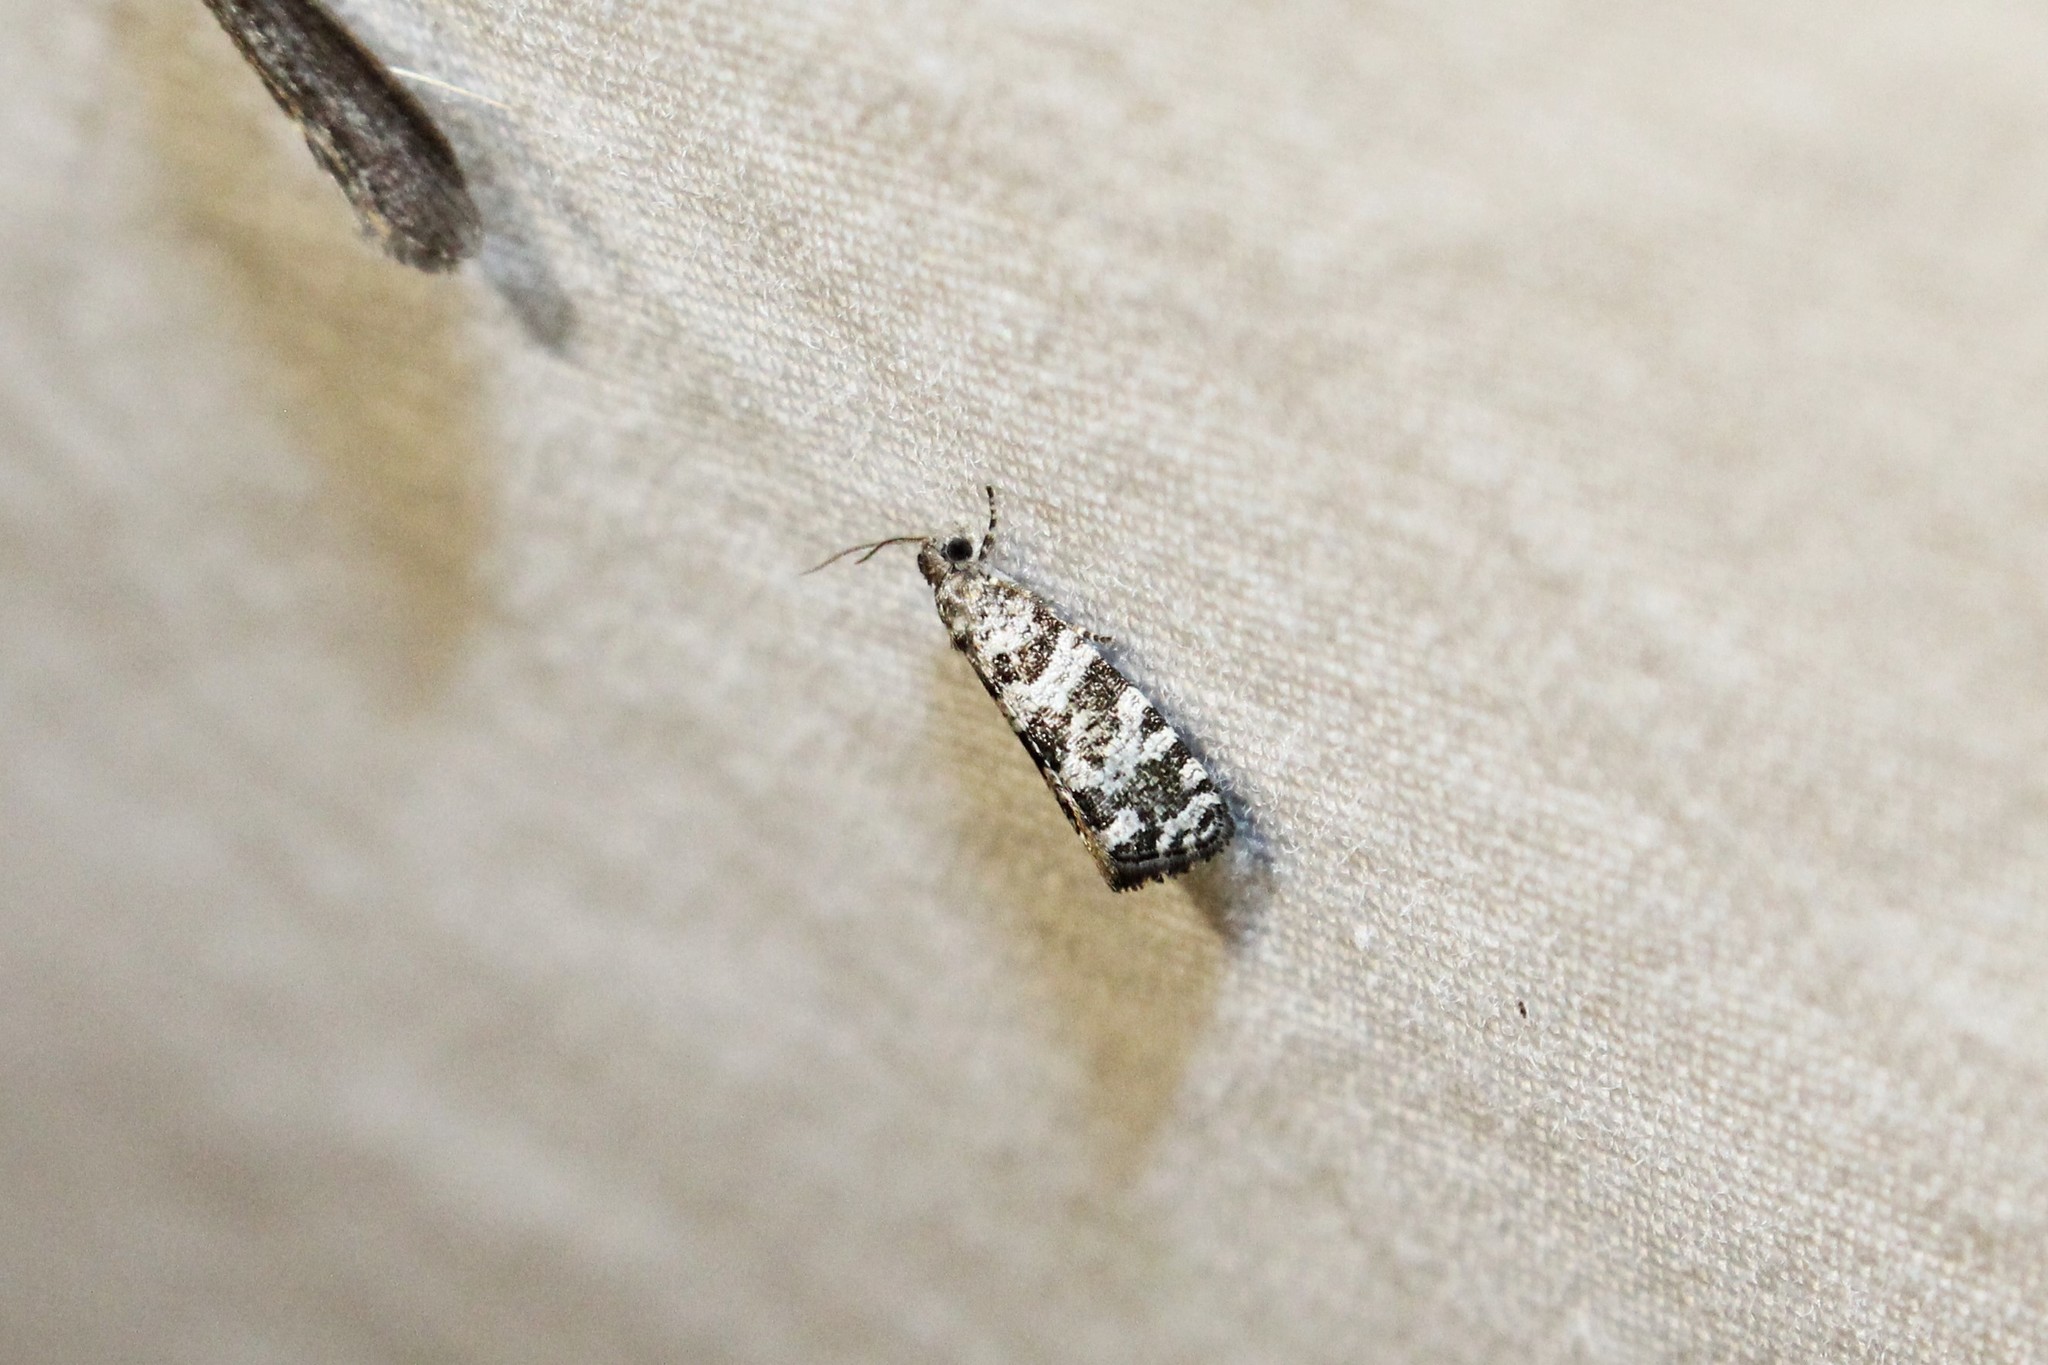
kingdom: Animalia
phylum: Arthropoda
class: Insecta
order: Lepidoptera
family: Tortricidae
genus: Taniva
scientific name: Taniva albolineana
